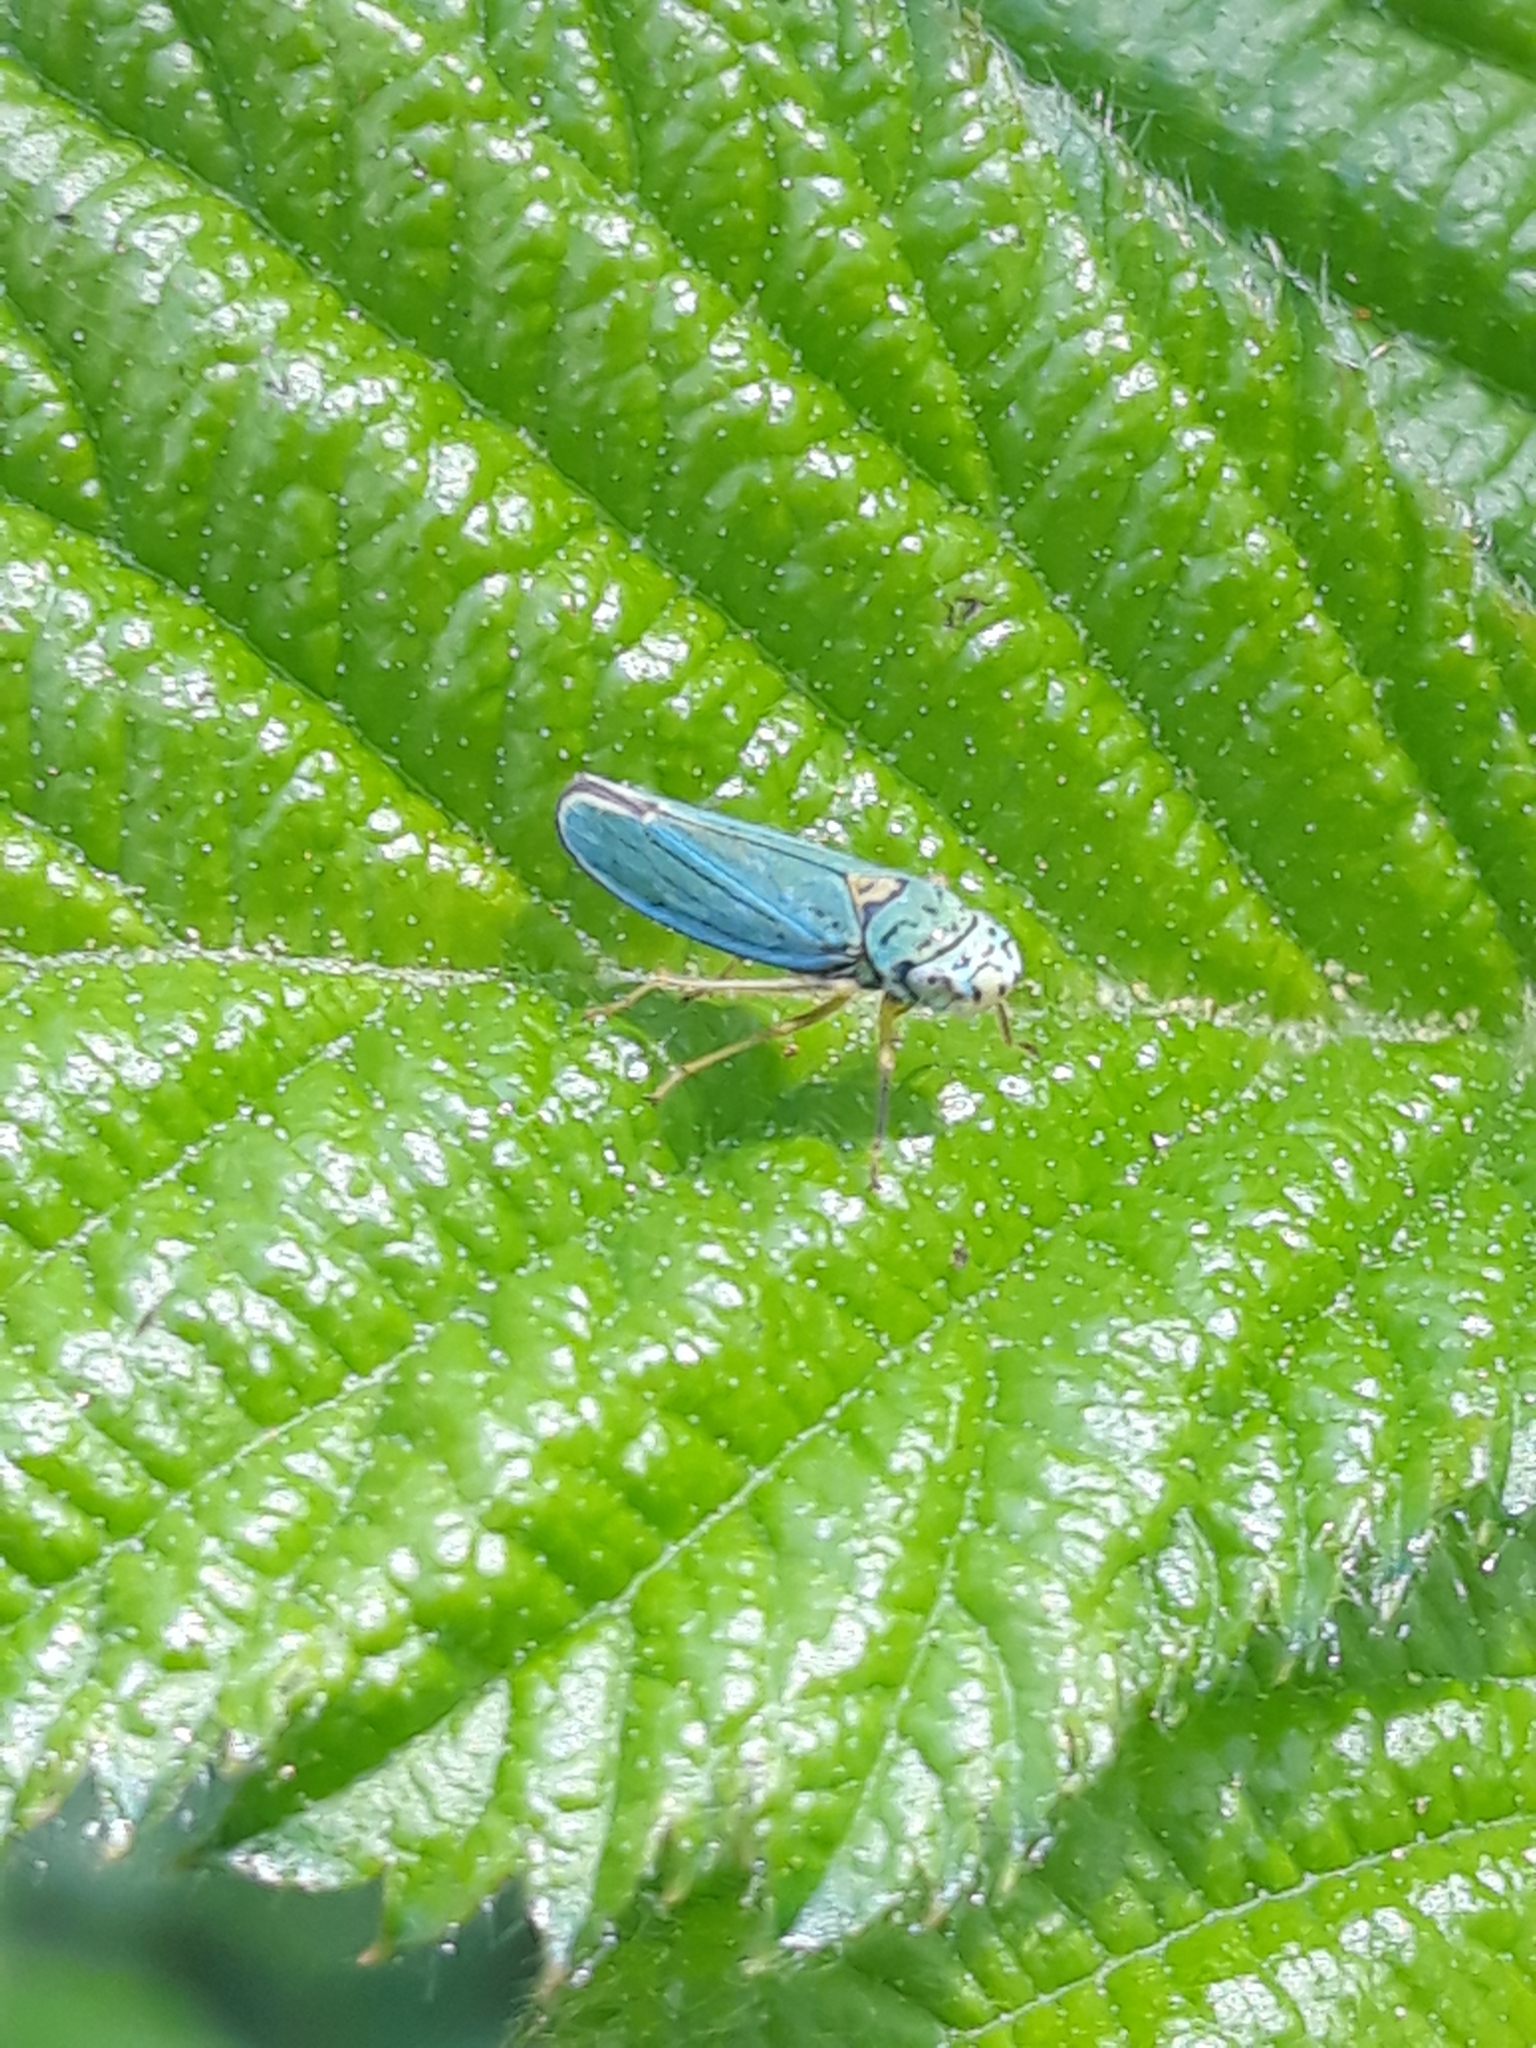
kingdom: Animalia
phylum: Arthropoda
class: Insecta
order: Hemiptera
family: Cicadellidae
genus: Graphocephala
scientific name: Graphocephala atropunctata
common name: Blue-green sharpshooter
